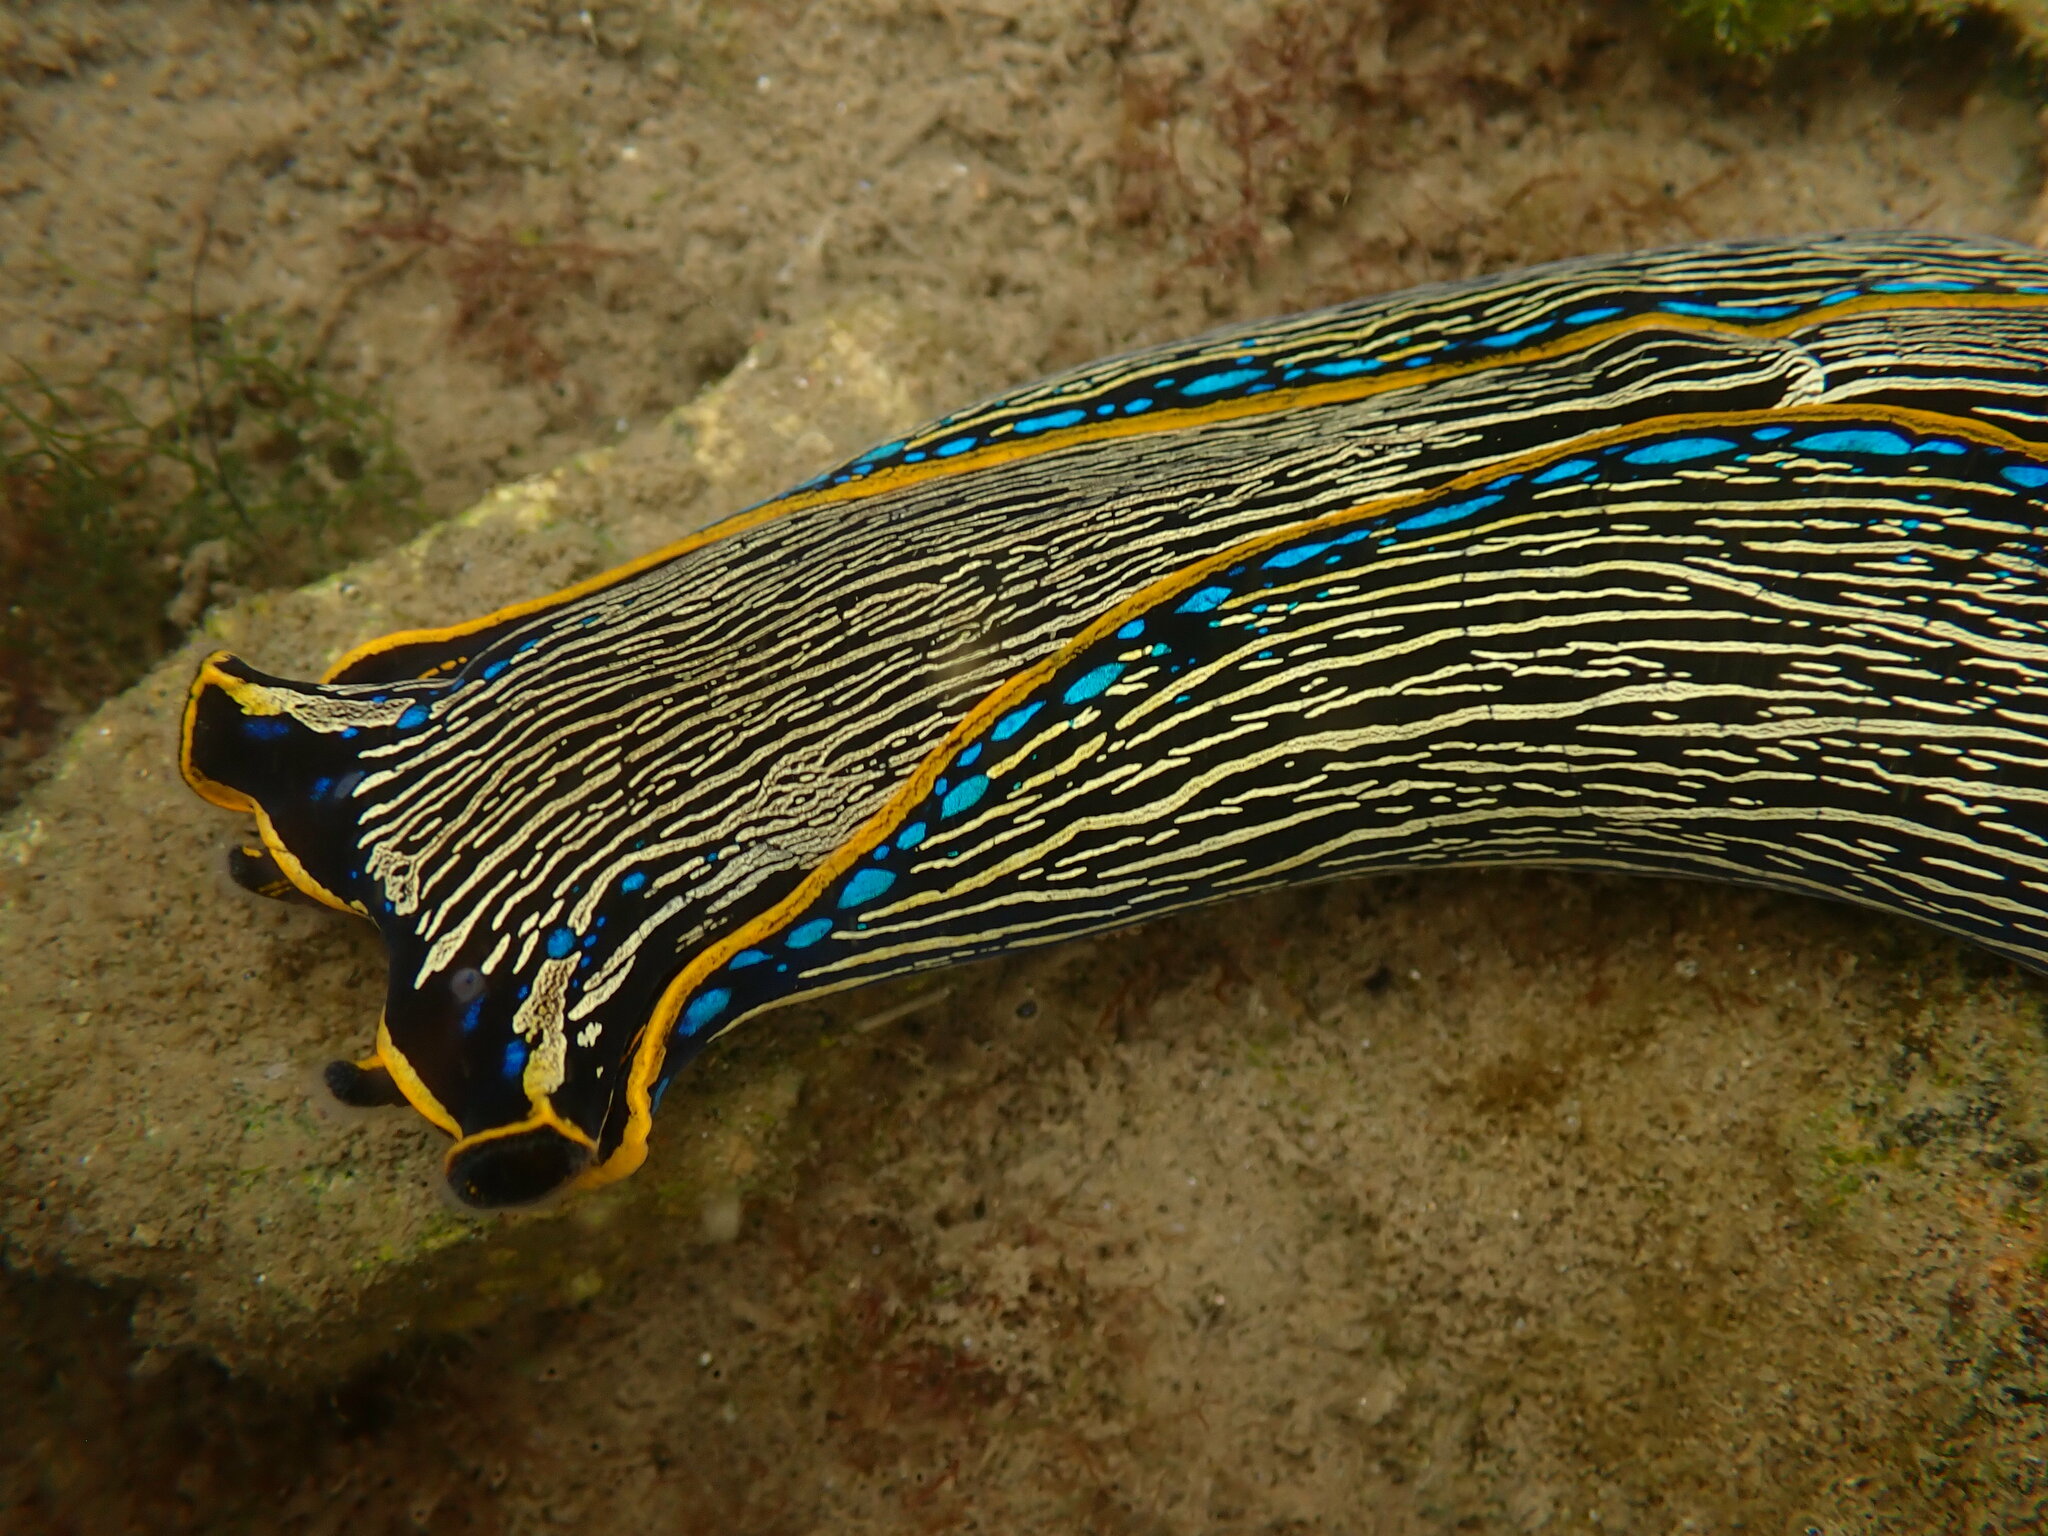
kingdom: Animalia
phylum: Mollusca
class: Gastropoda
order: Cephalaspidea
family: Aglajidae
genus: Navanax
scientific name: Navanax inermis
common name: California aglaja
